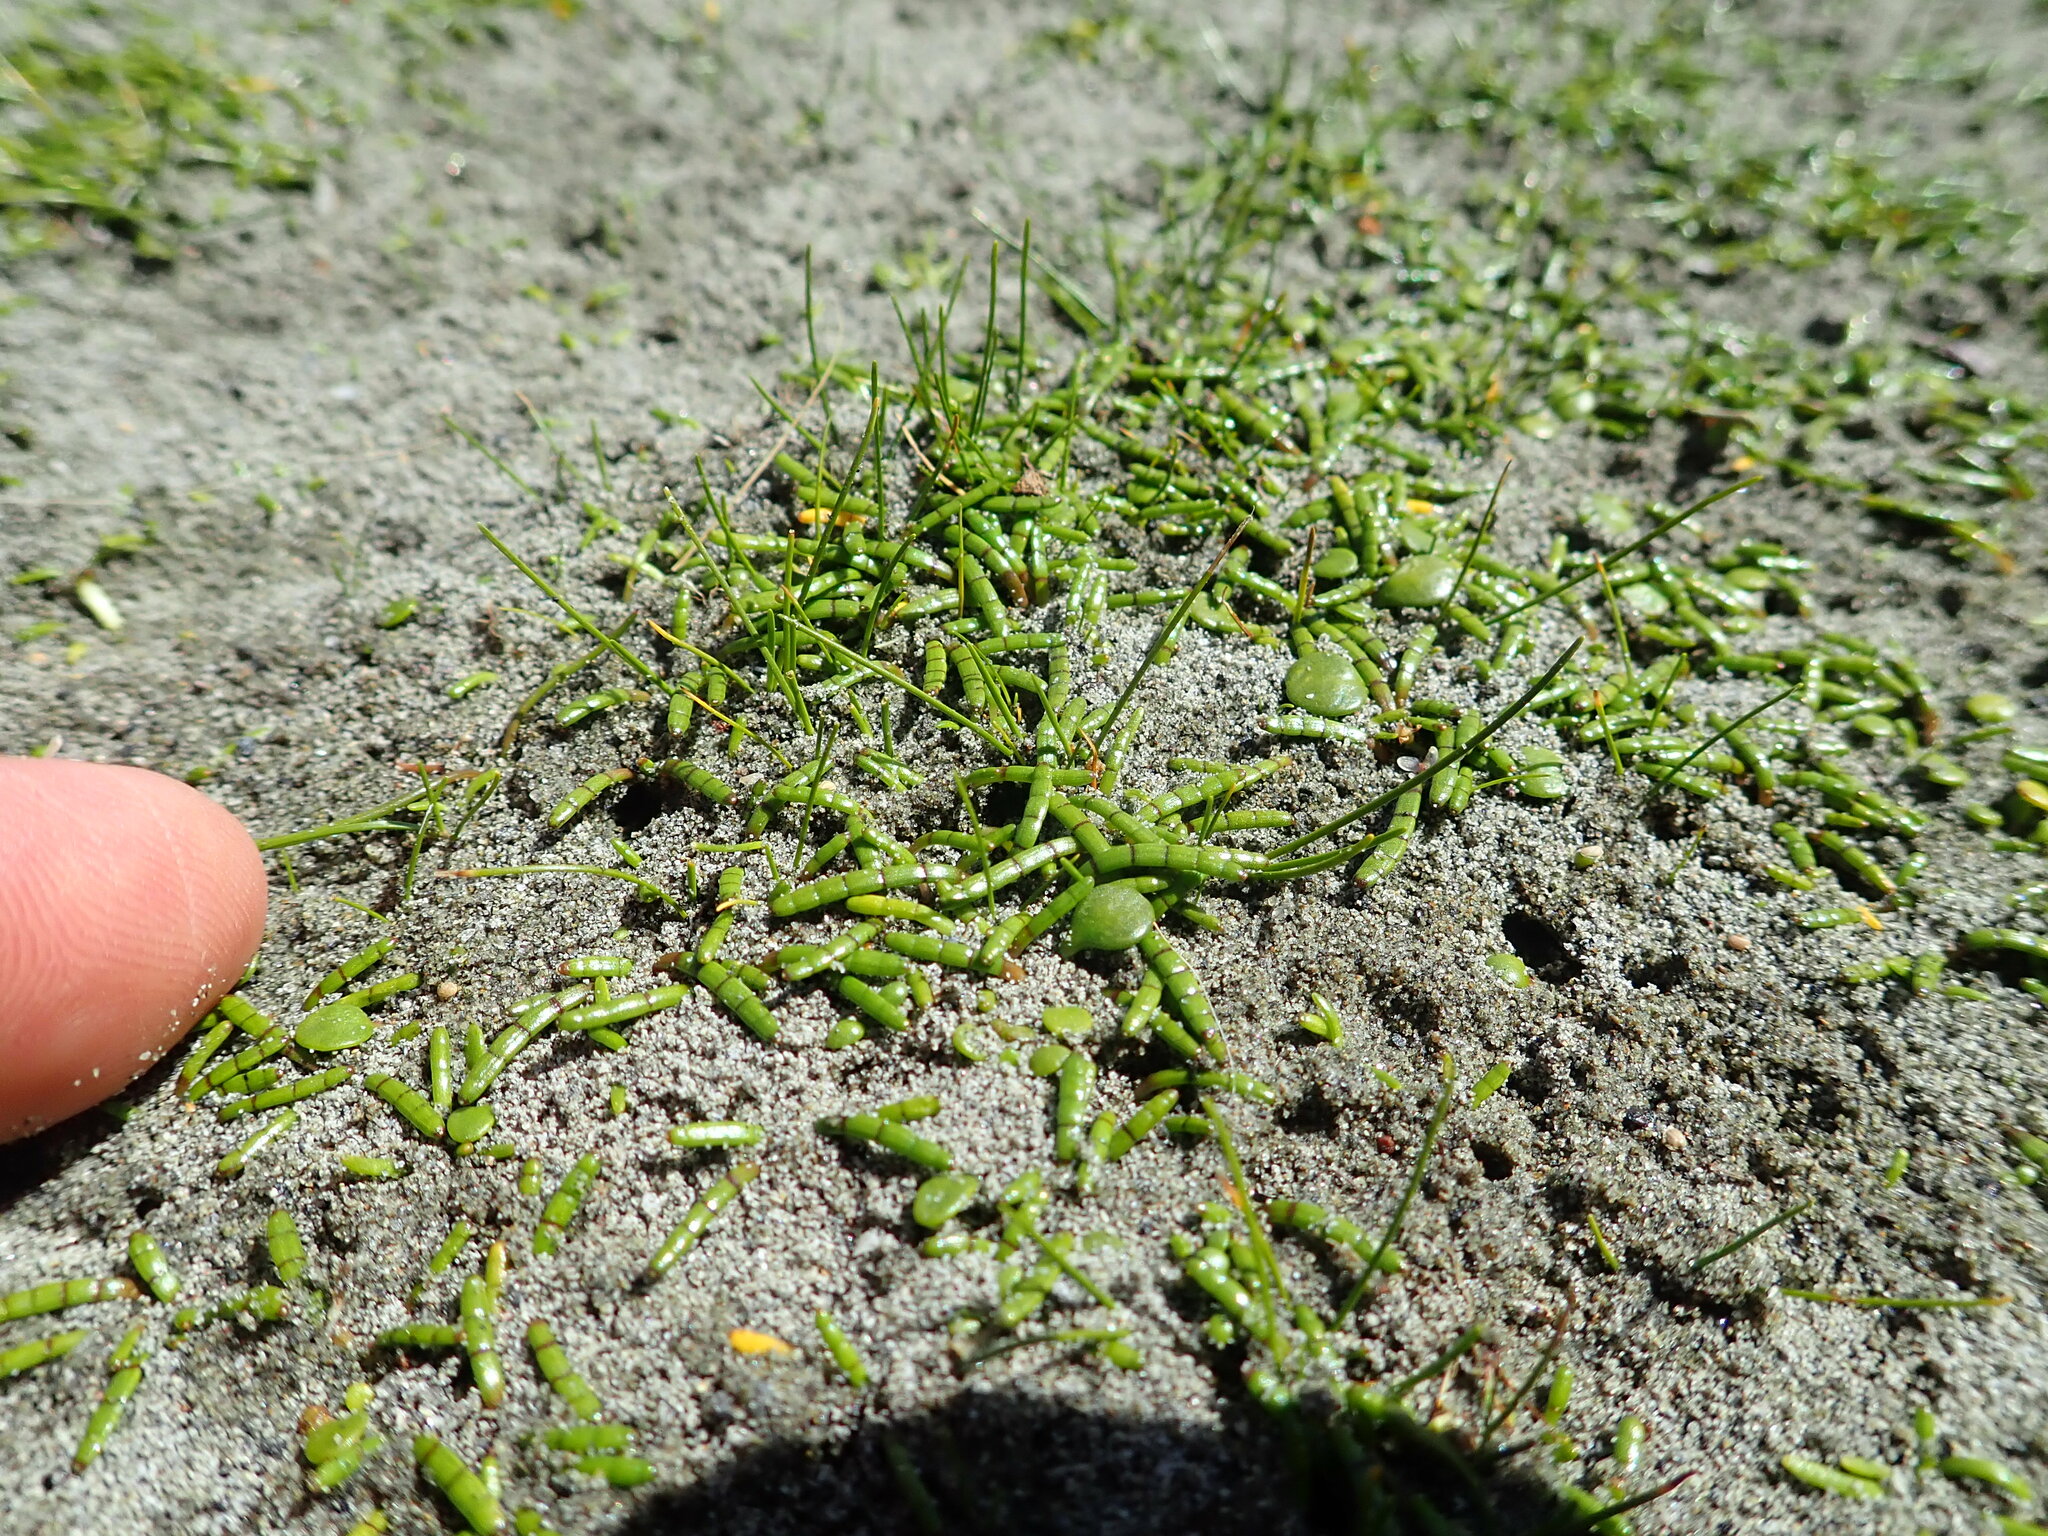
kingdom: Plantae
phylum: Tracheophyta
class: Magnoliopsida
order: Apiales
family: Apiaceae
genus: Lilaeopsis
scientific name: Lilaeopsis novae-zelandiae
